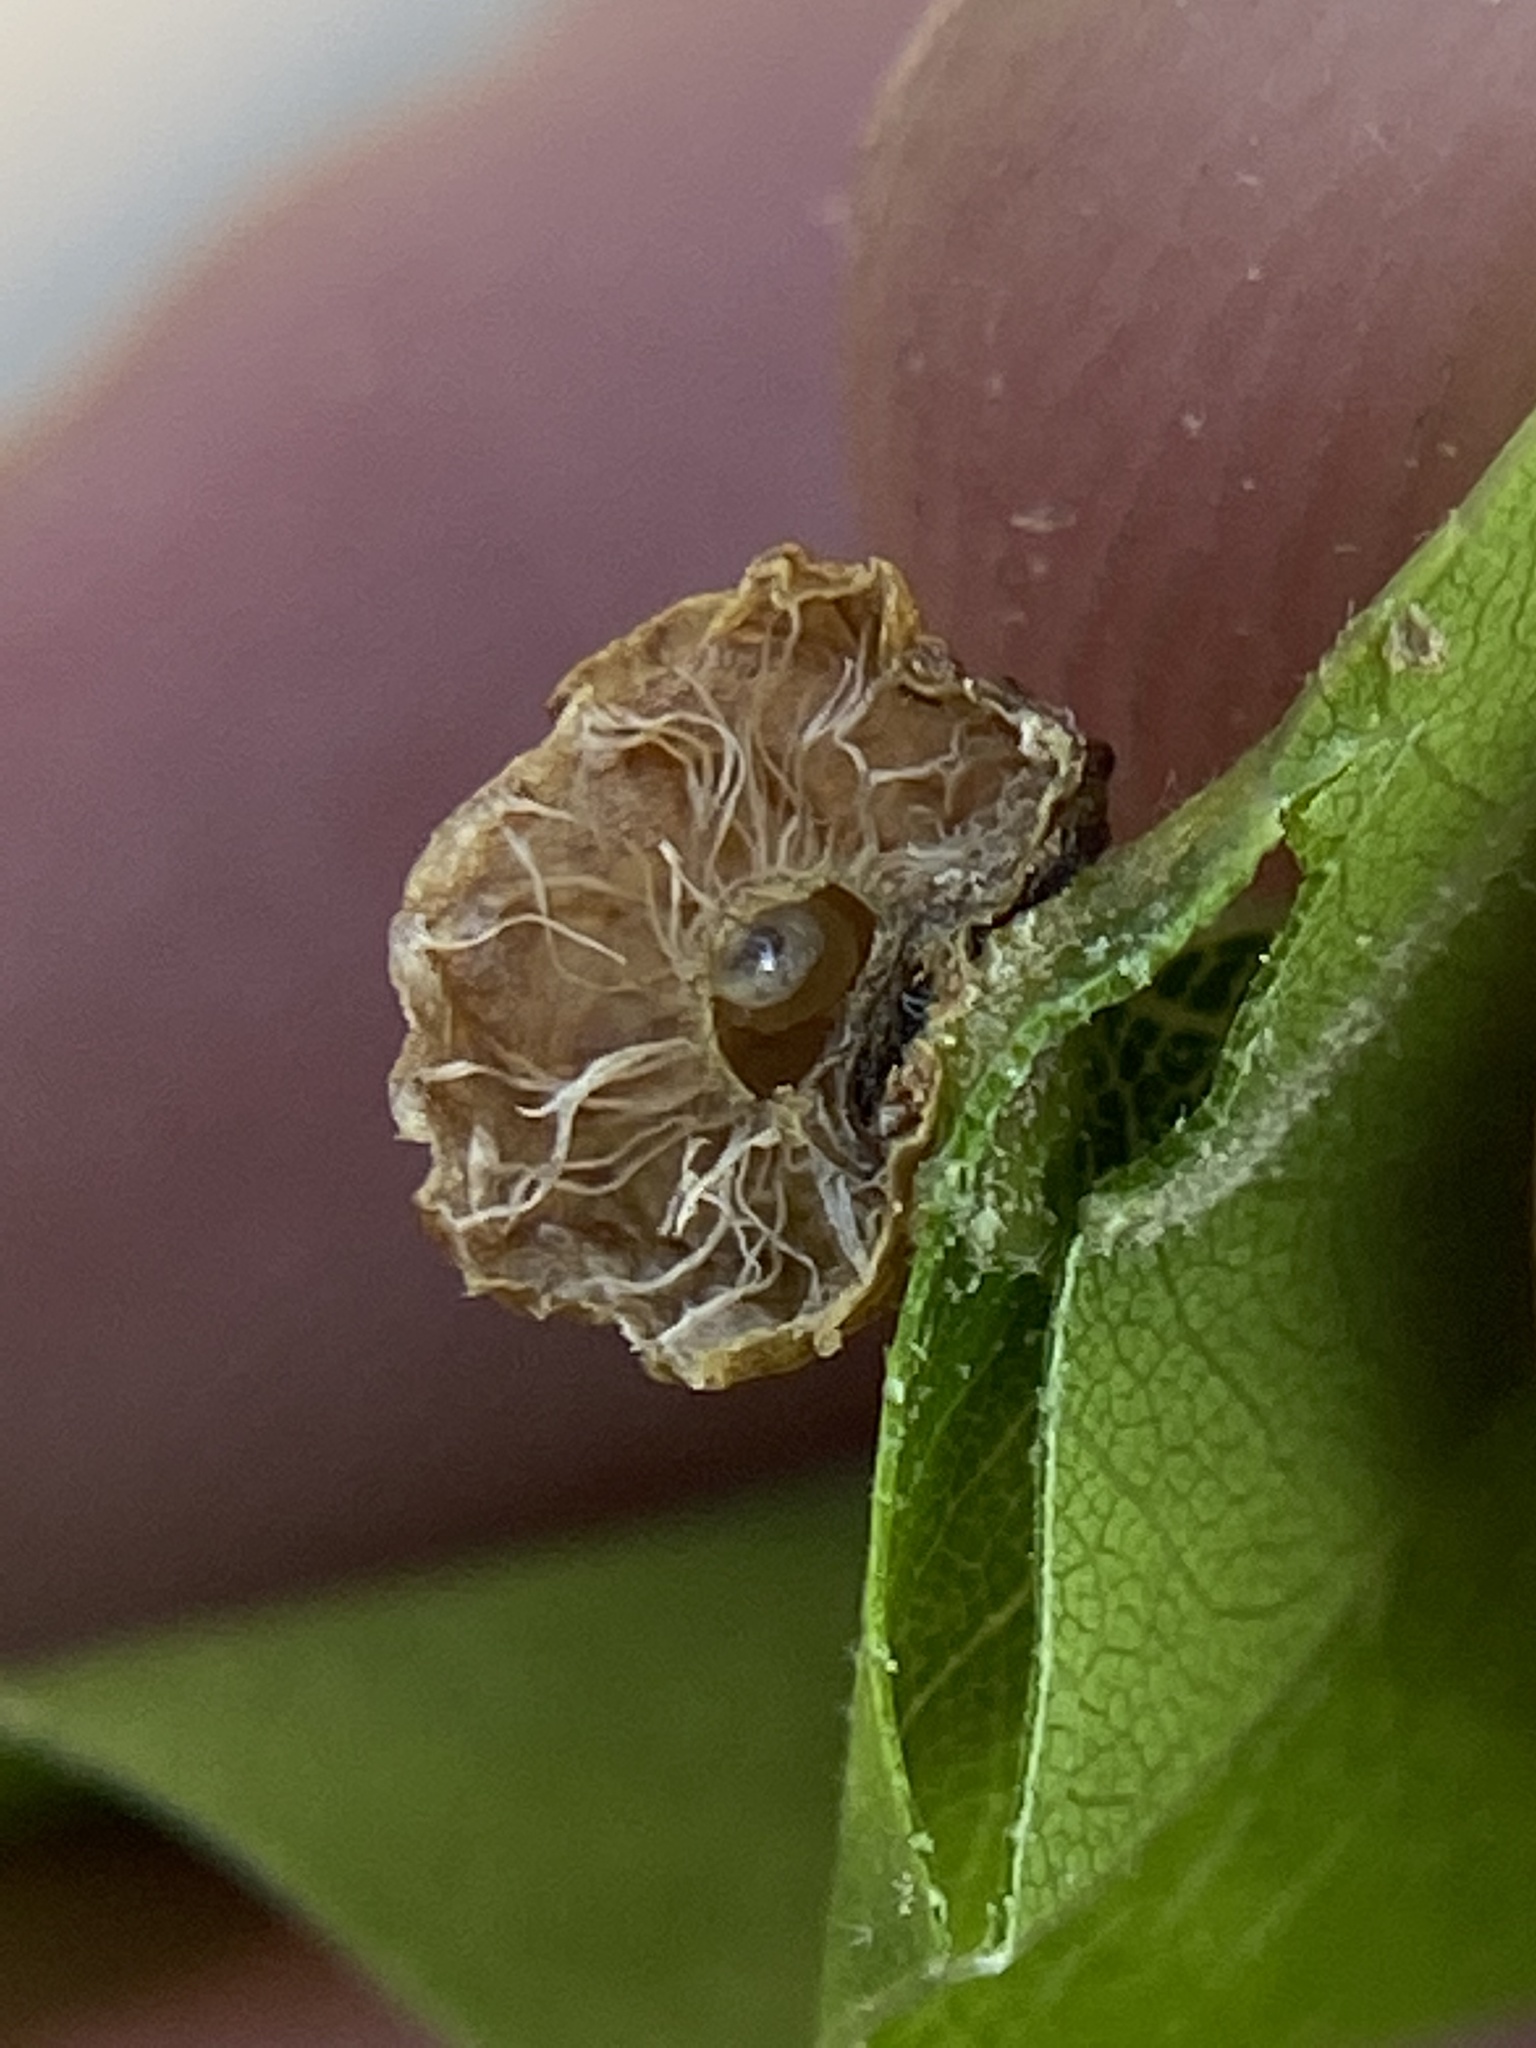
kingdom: Animalia
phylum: Arthropoda
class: Insecta
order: Hymenoptera
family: Cynipidae
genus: Amphibolips
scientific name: Amphibolips
